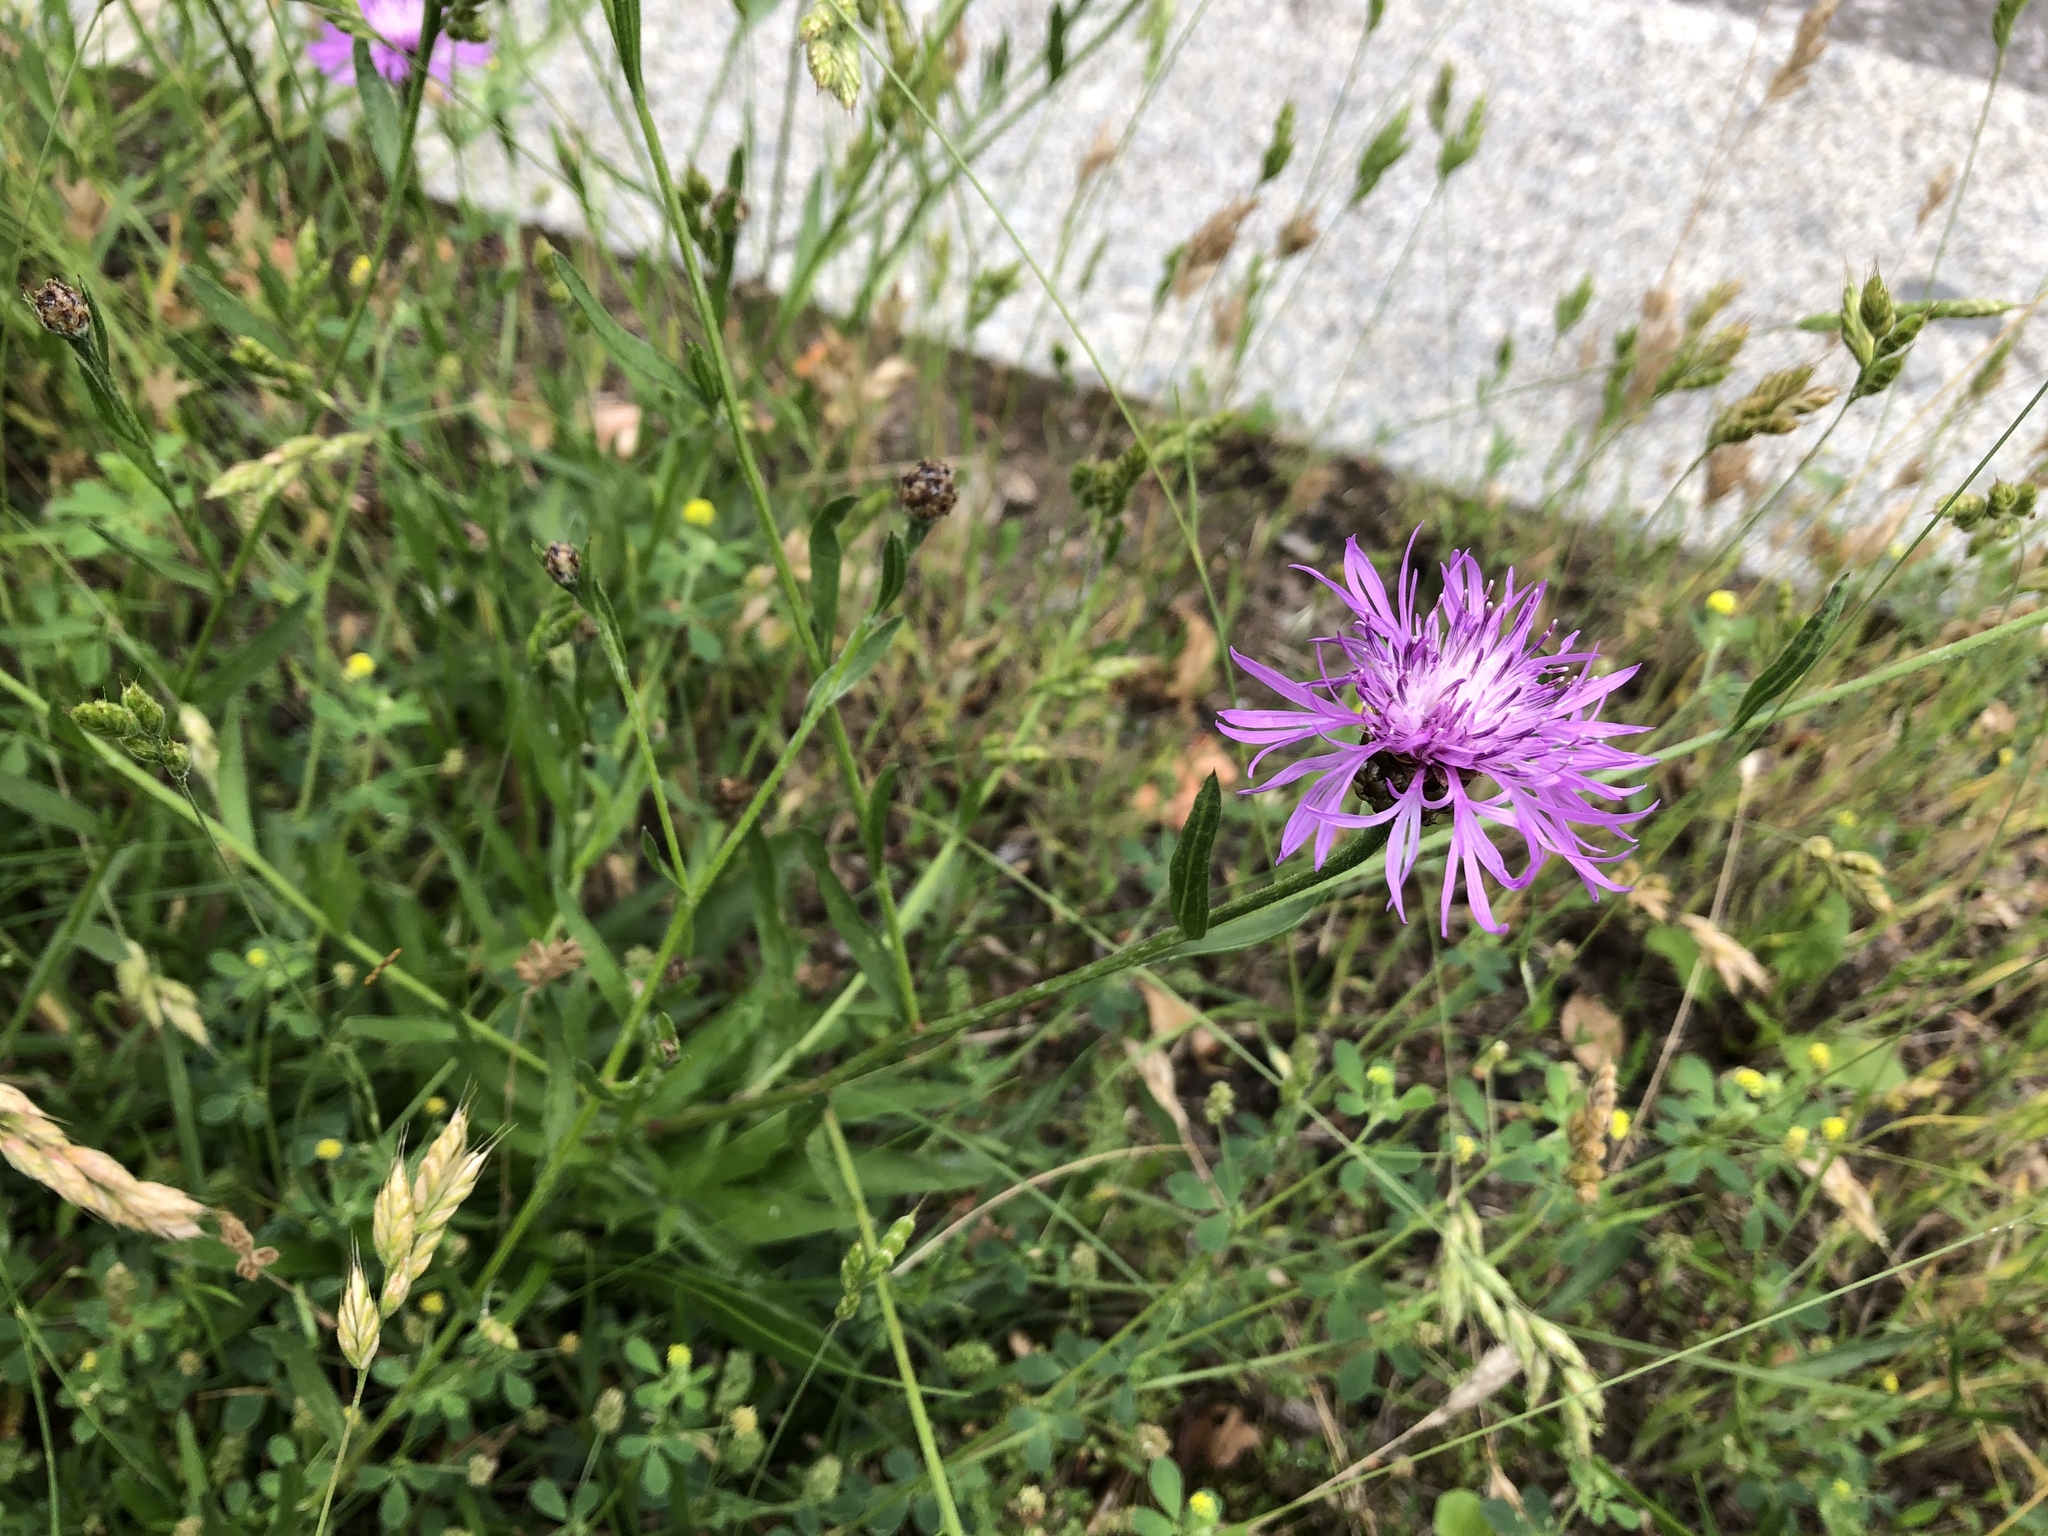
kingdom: Plantae
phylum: Tracheophyta
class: Magnoliopsida
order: Asterales
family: Asteraceae
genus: Centaurea
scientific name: Centaurea jacea
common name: Brown knapweed
